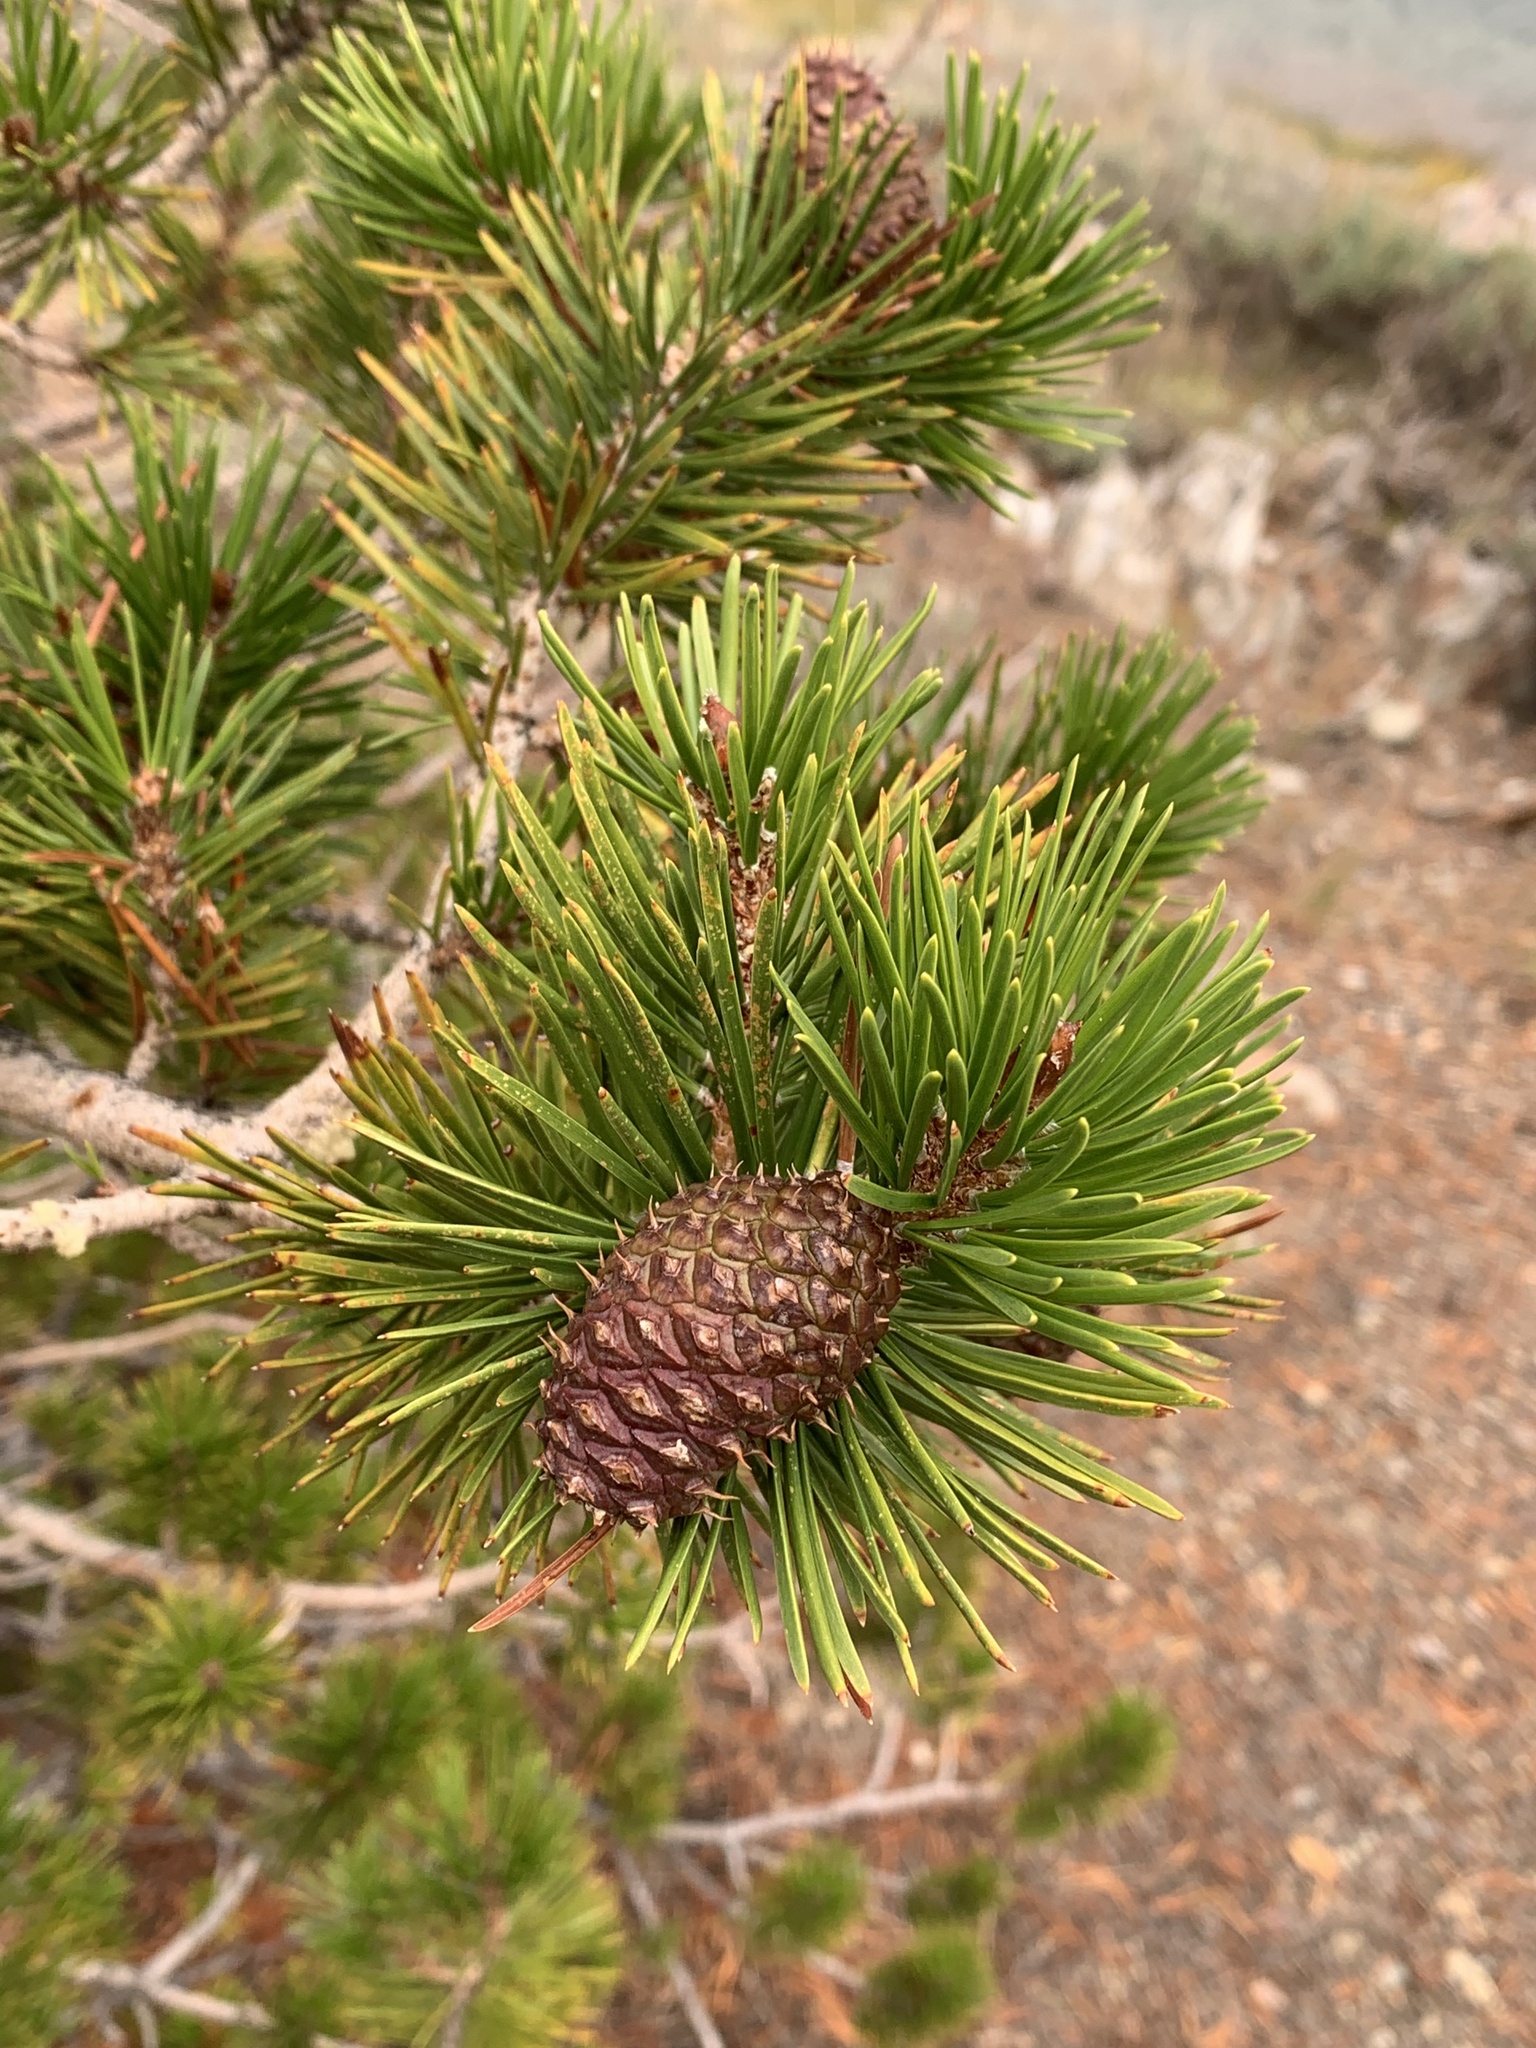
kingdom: Plantae
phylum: Tracheophyta
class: Pinopsida
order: Pinales
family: Pinaceae
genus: Pinus
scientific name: Pinus contorta
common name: Lodgepole pine
